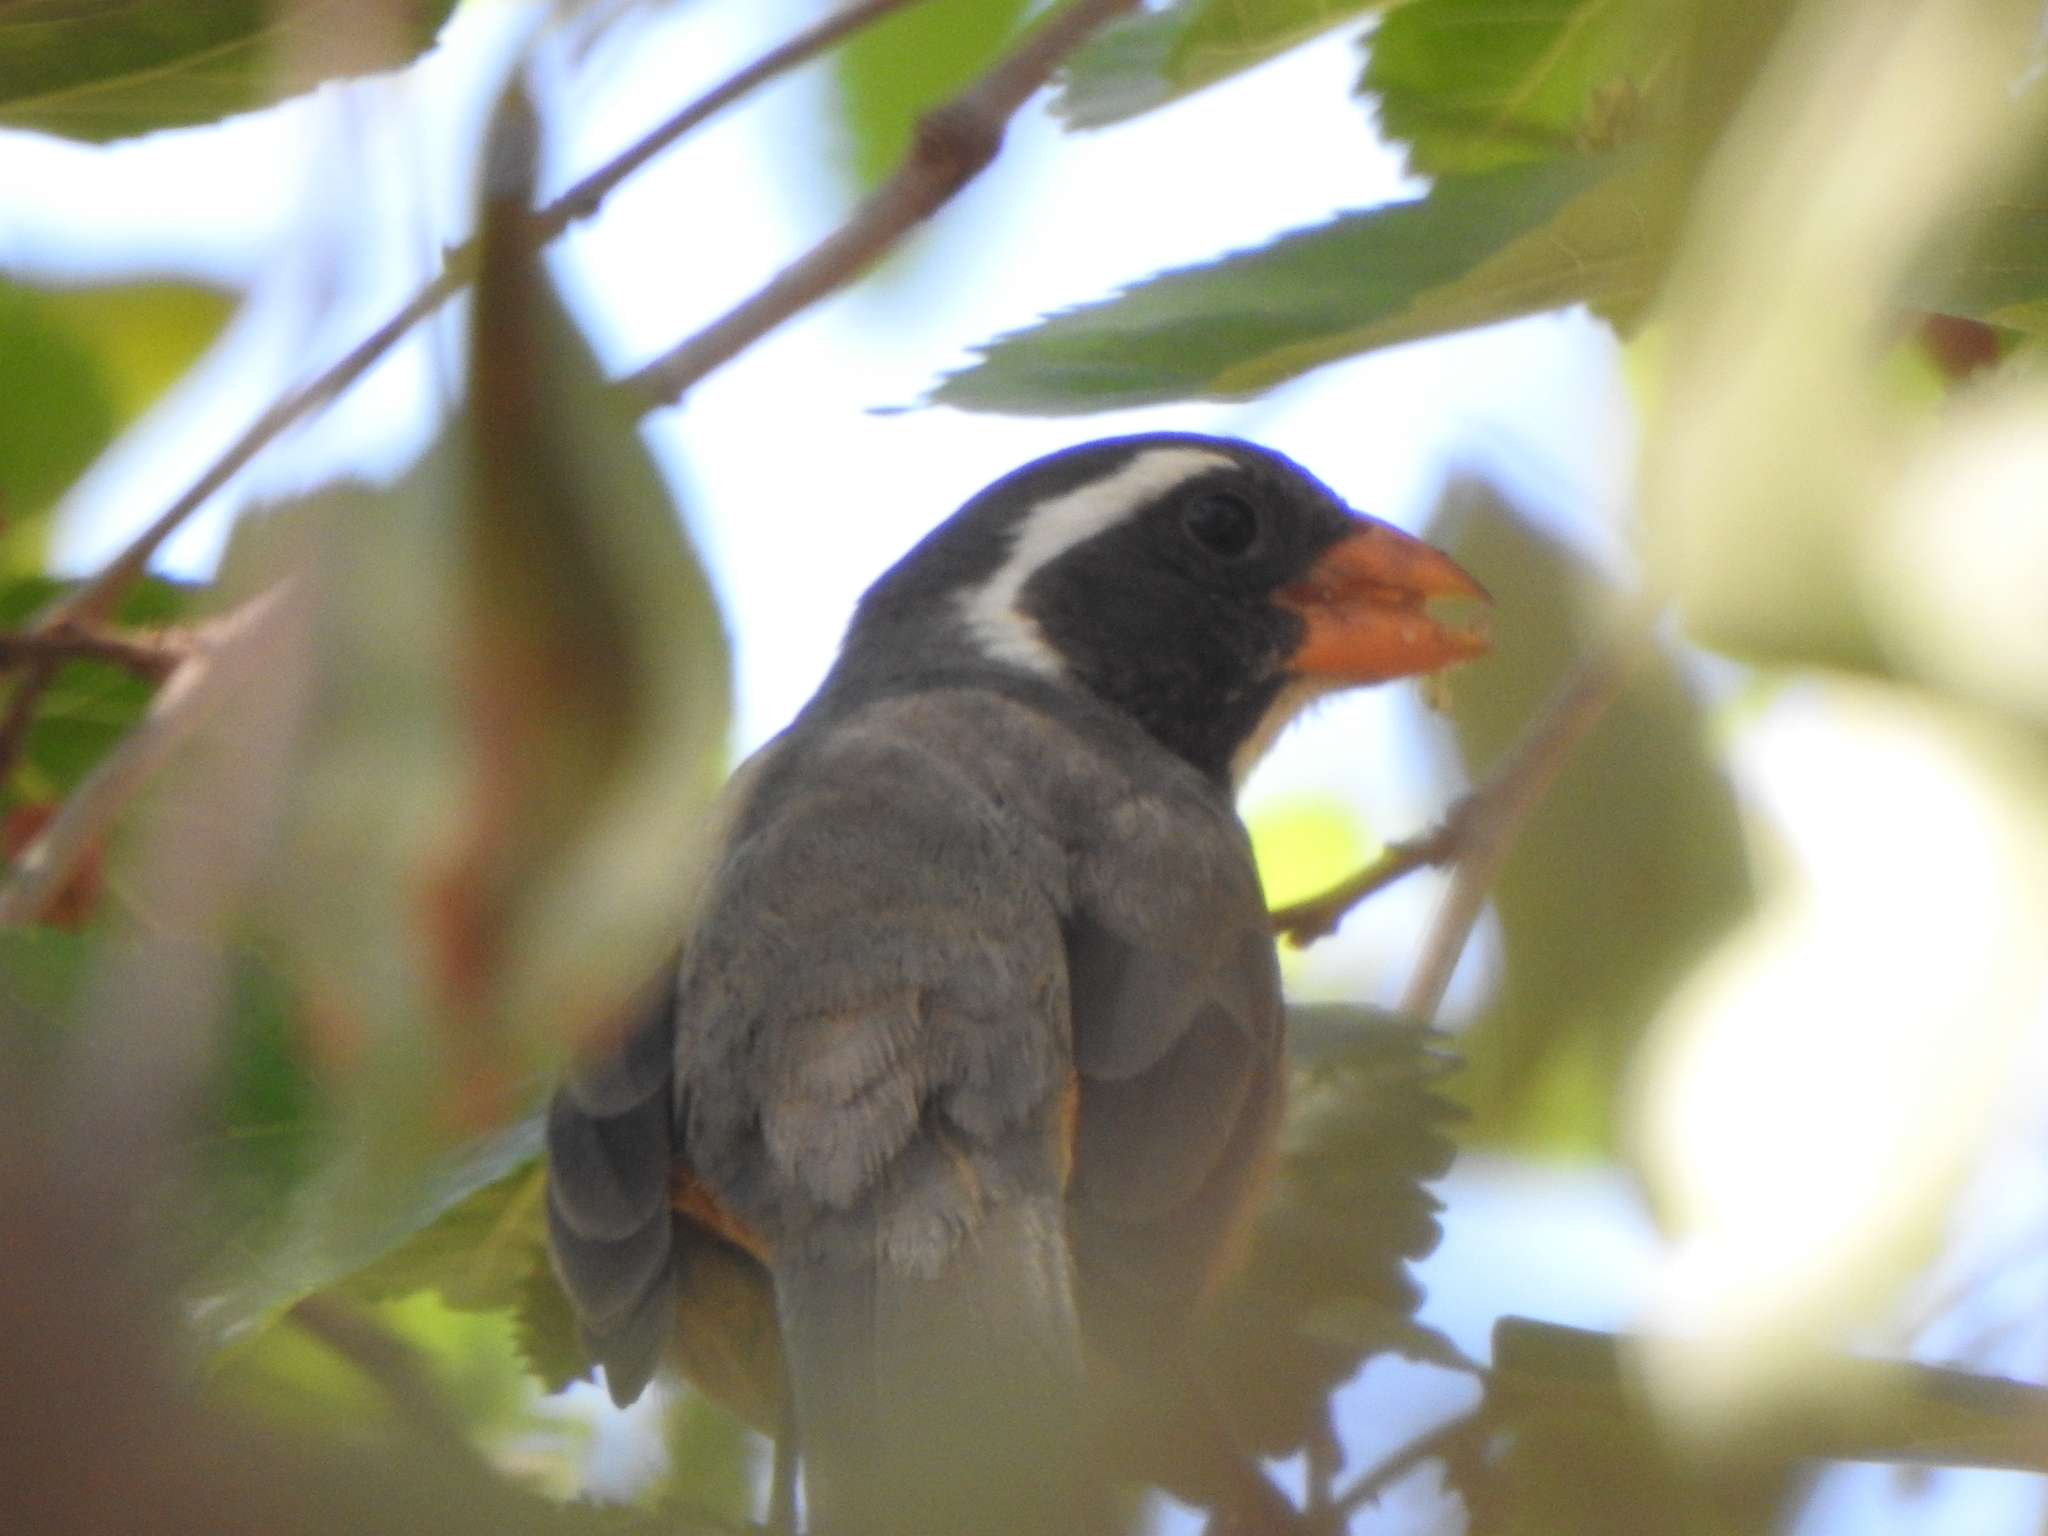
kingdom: Animalia
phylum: Chordata
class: Aves
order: Passeriformes
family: Thraupidae
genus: Saltator
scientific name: Saltator aurantiirostris
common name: Golden-billed saltator
